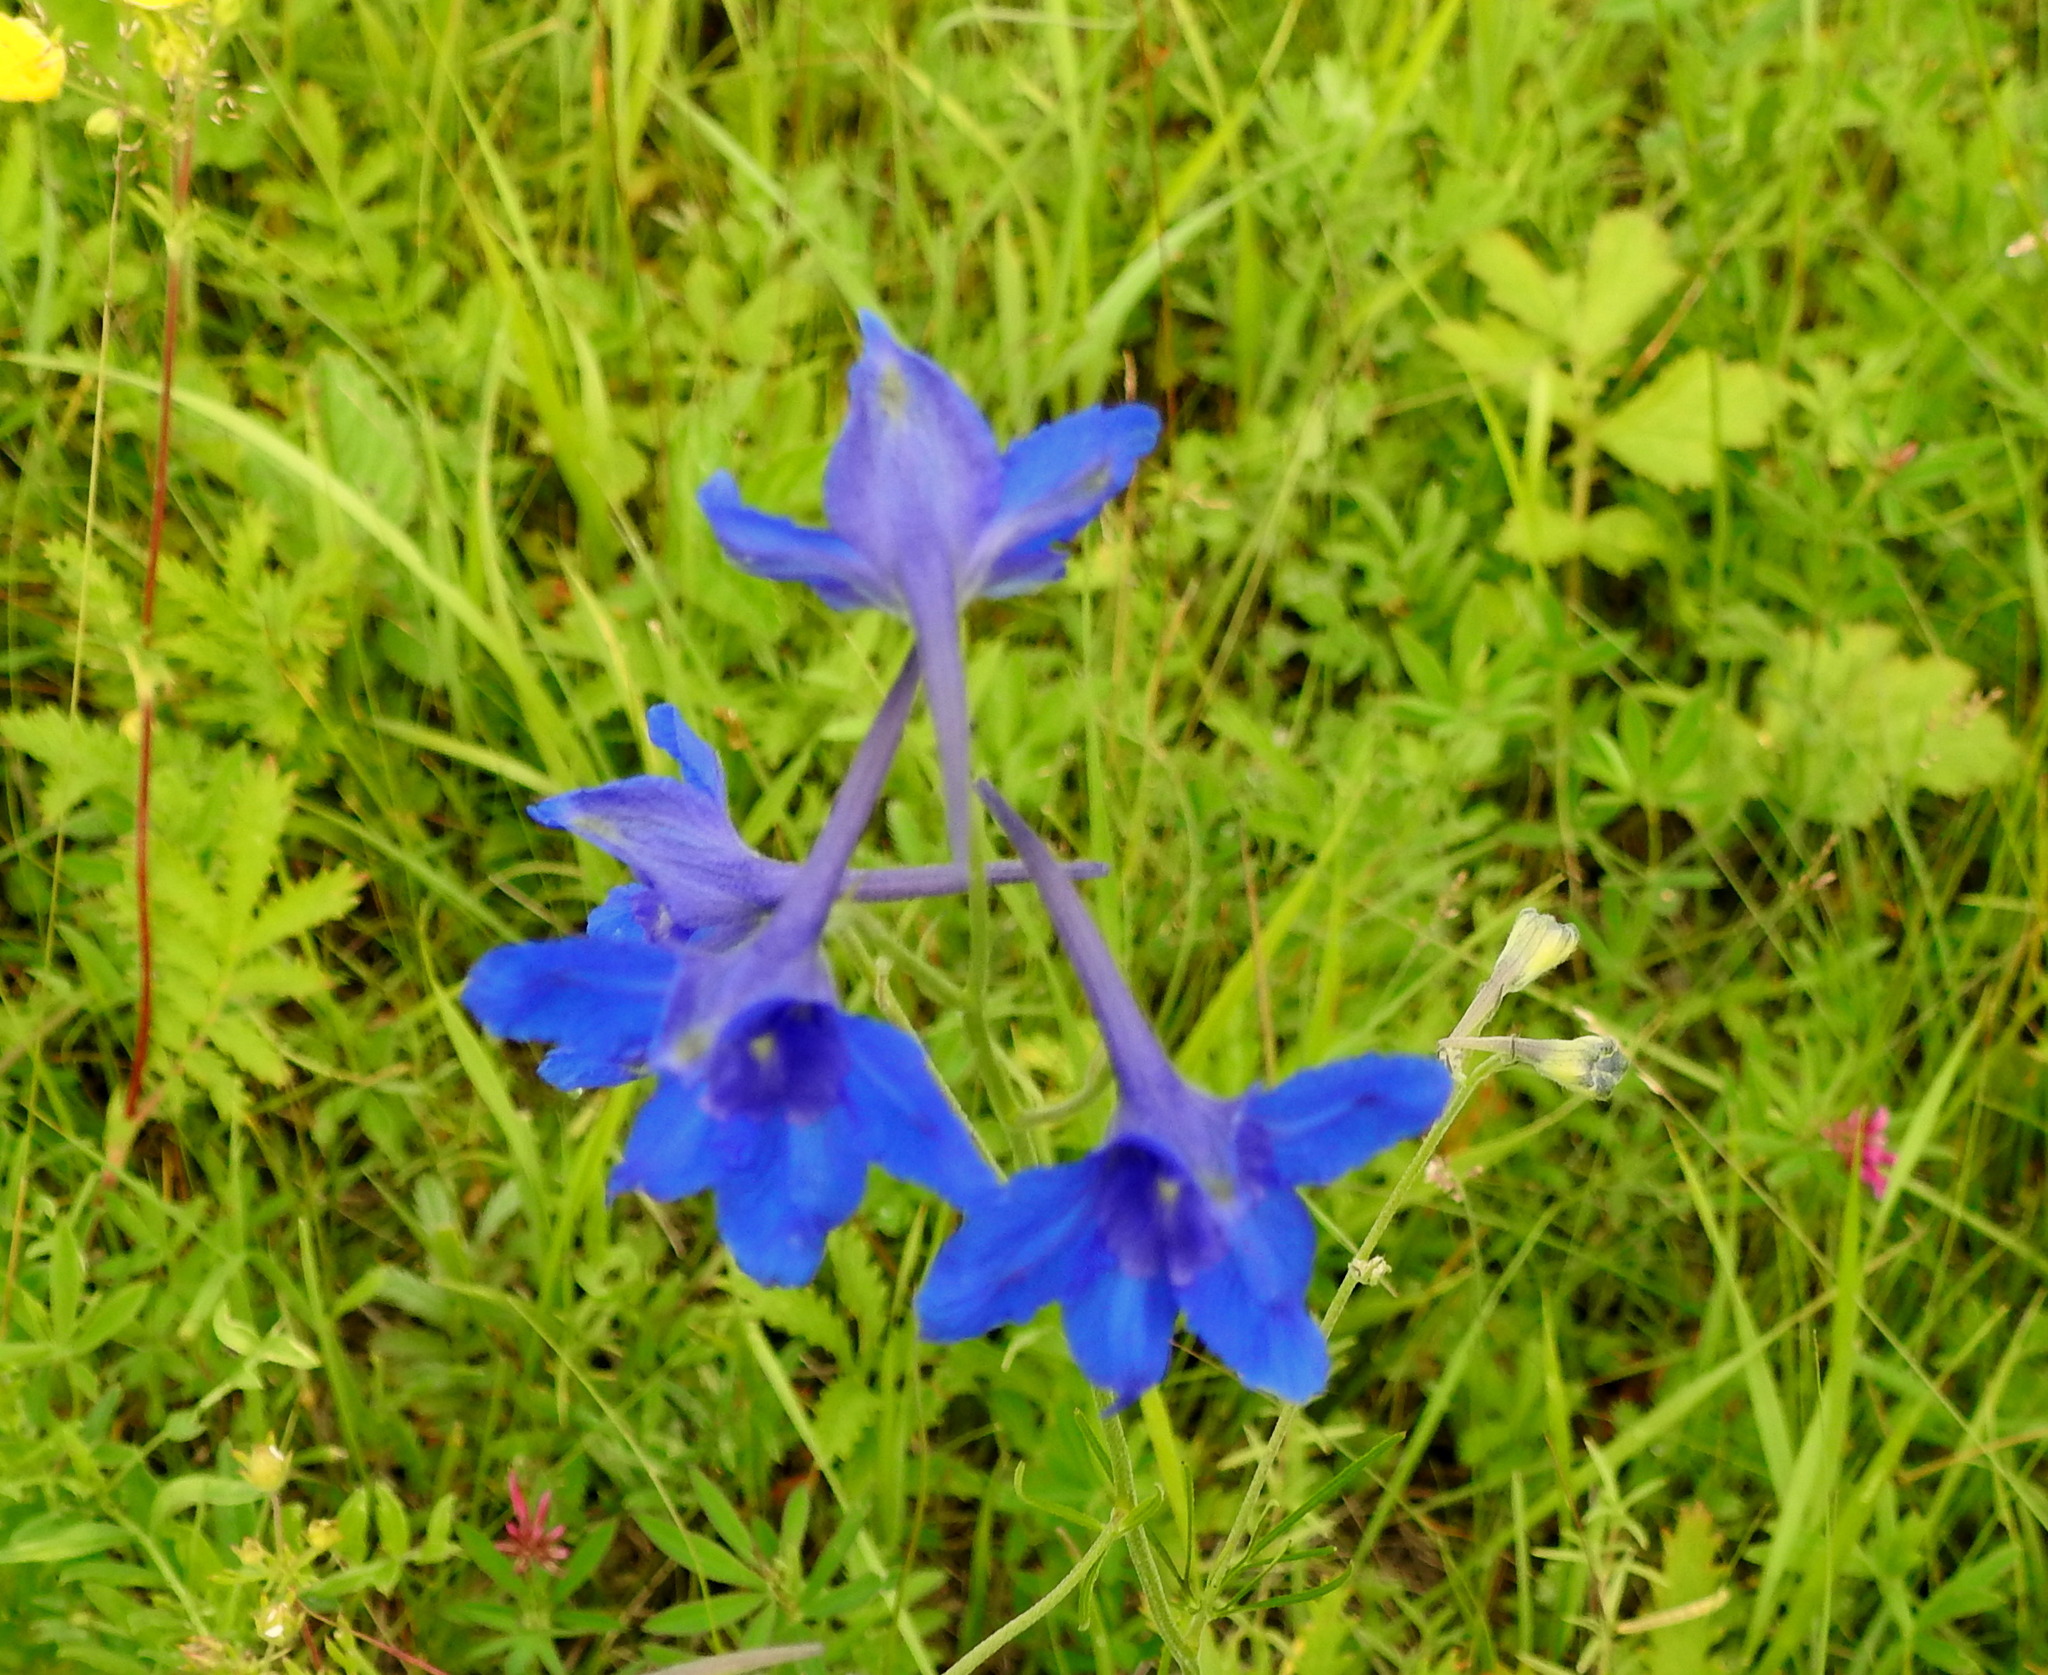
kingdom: Plantae
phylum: Tracheophyta
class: Magnoliopsida
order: Ranunculales
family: Ranunculaceae
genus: Delphinium
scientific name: Delphinium grandiflorum
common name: Siberian larkspur
